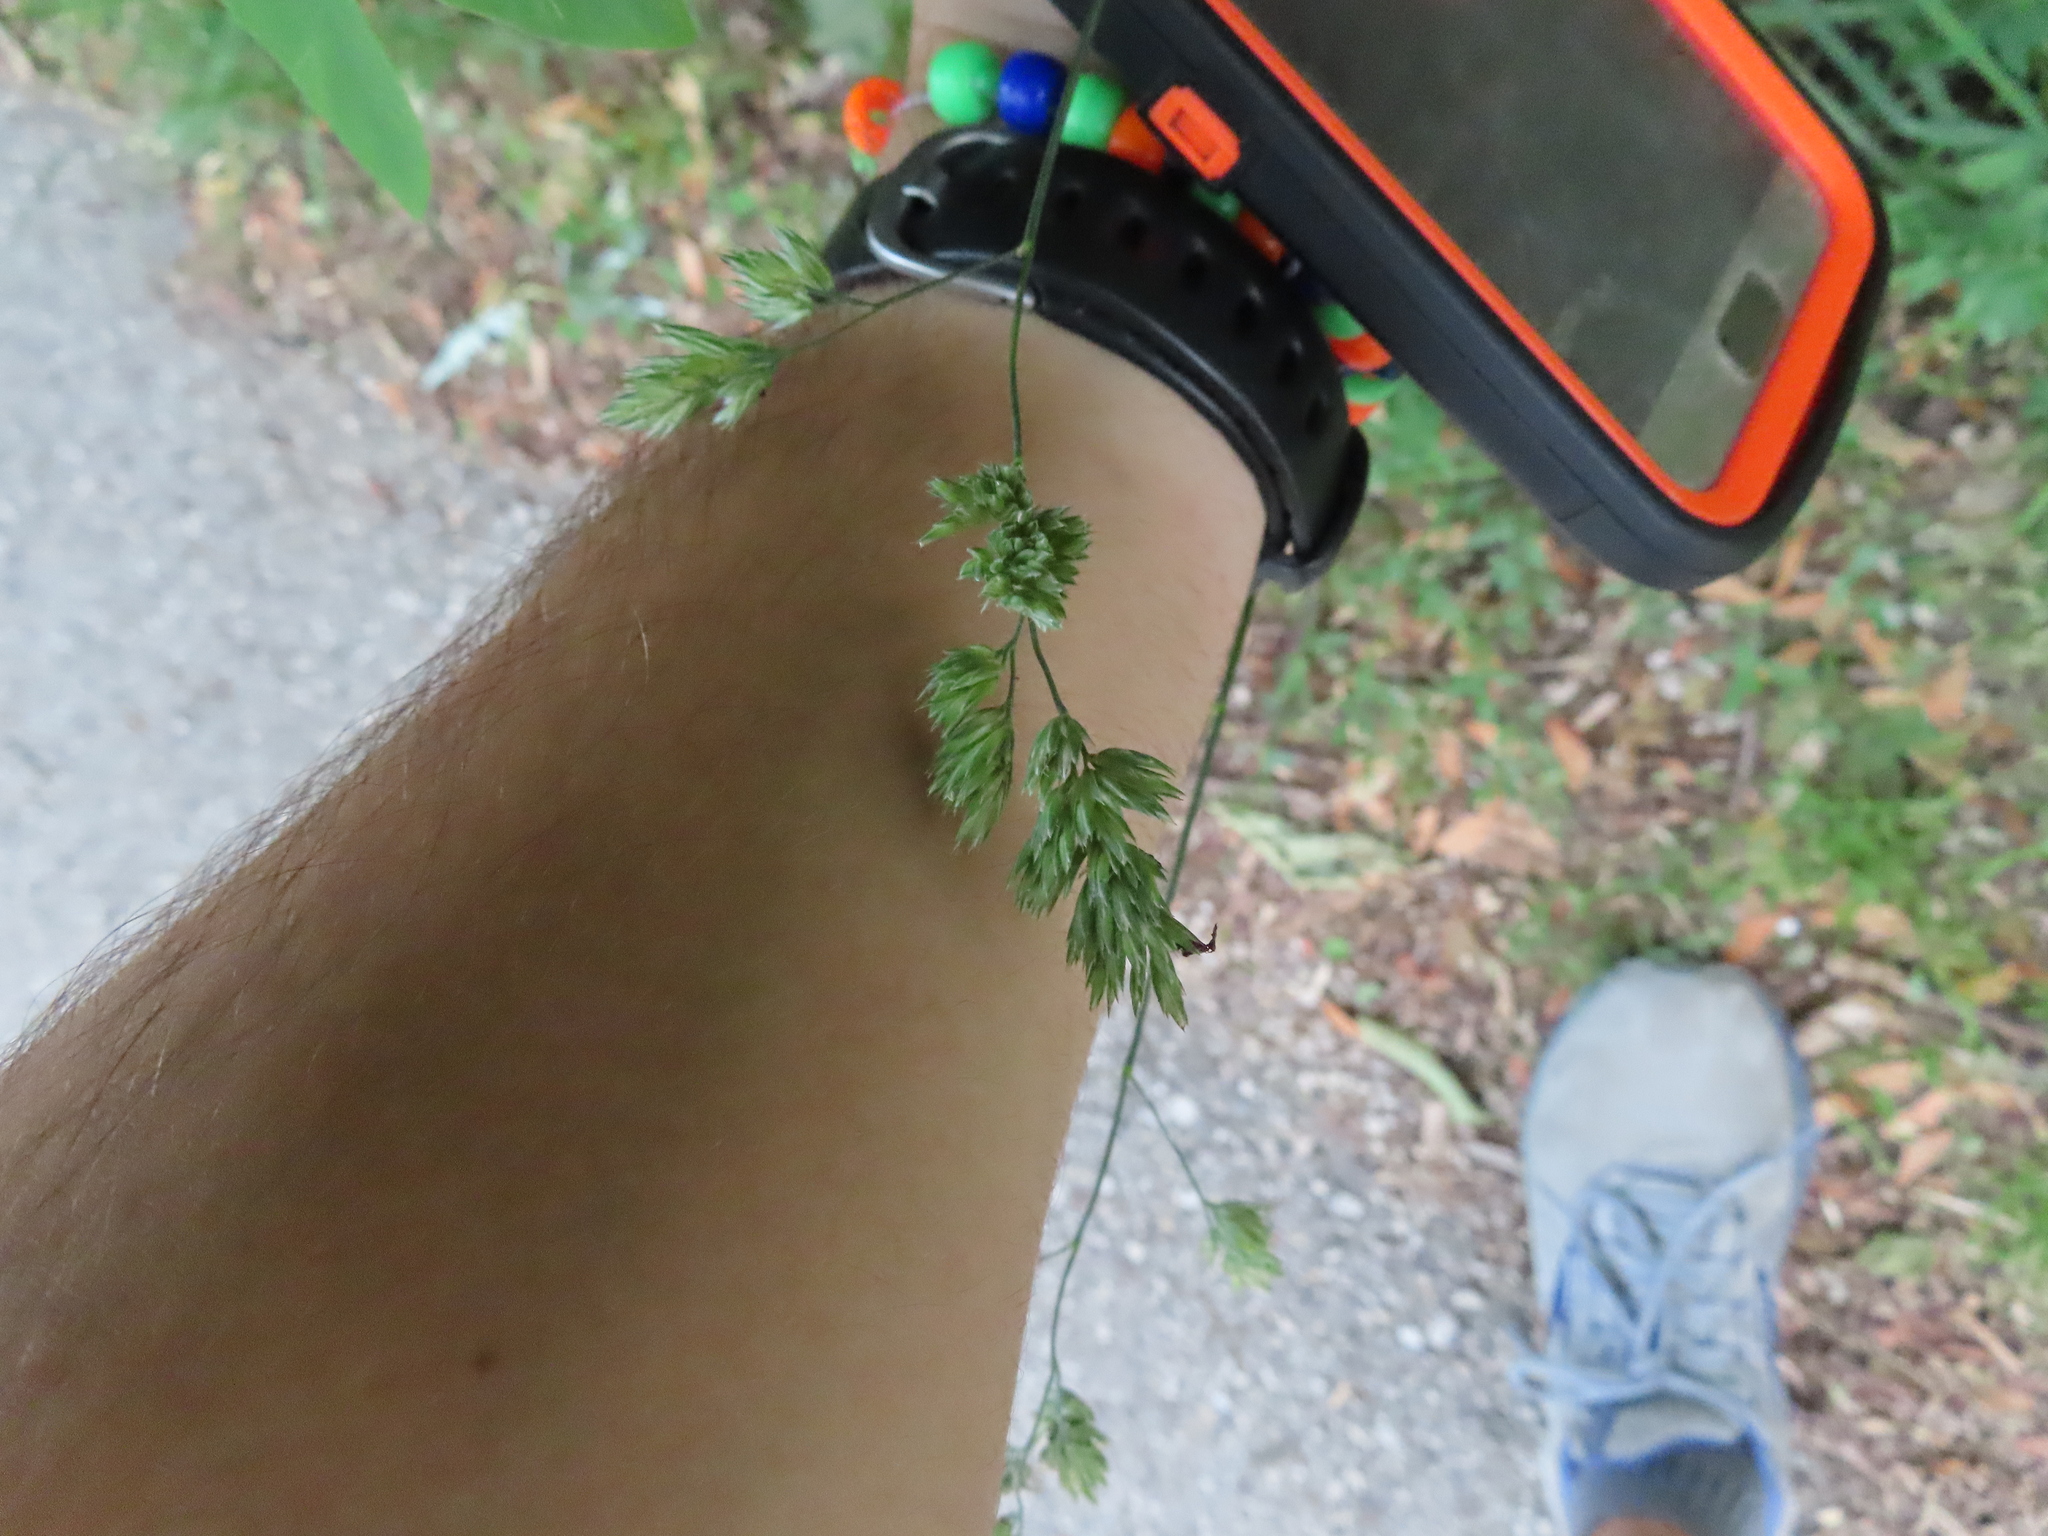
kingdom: Plantae
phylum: Tracheophyta
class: Liliopsida
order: Poales
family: Poaceae
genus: Dactylis
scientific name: Dactylis glomerata
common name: Orchardgrass
